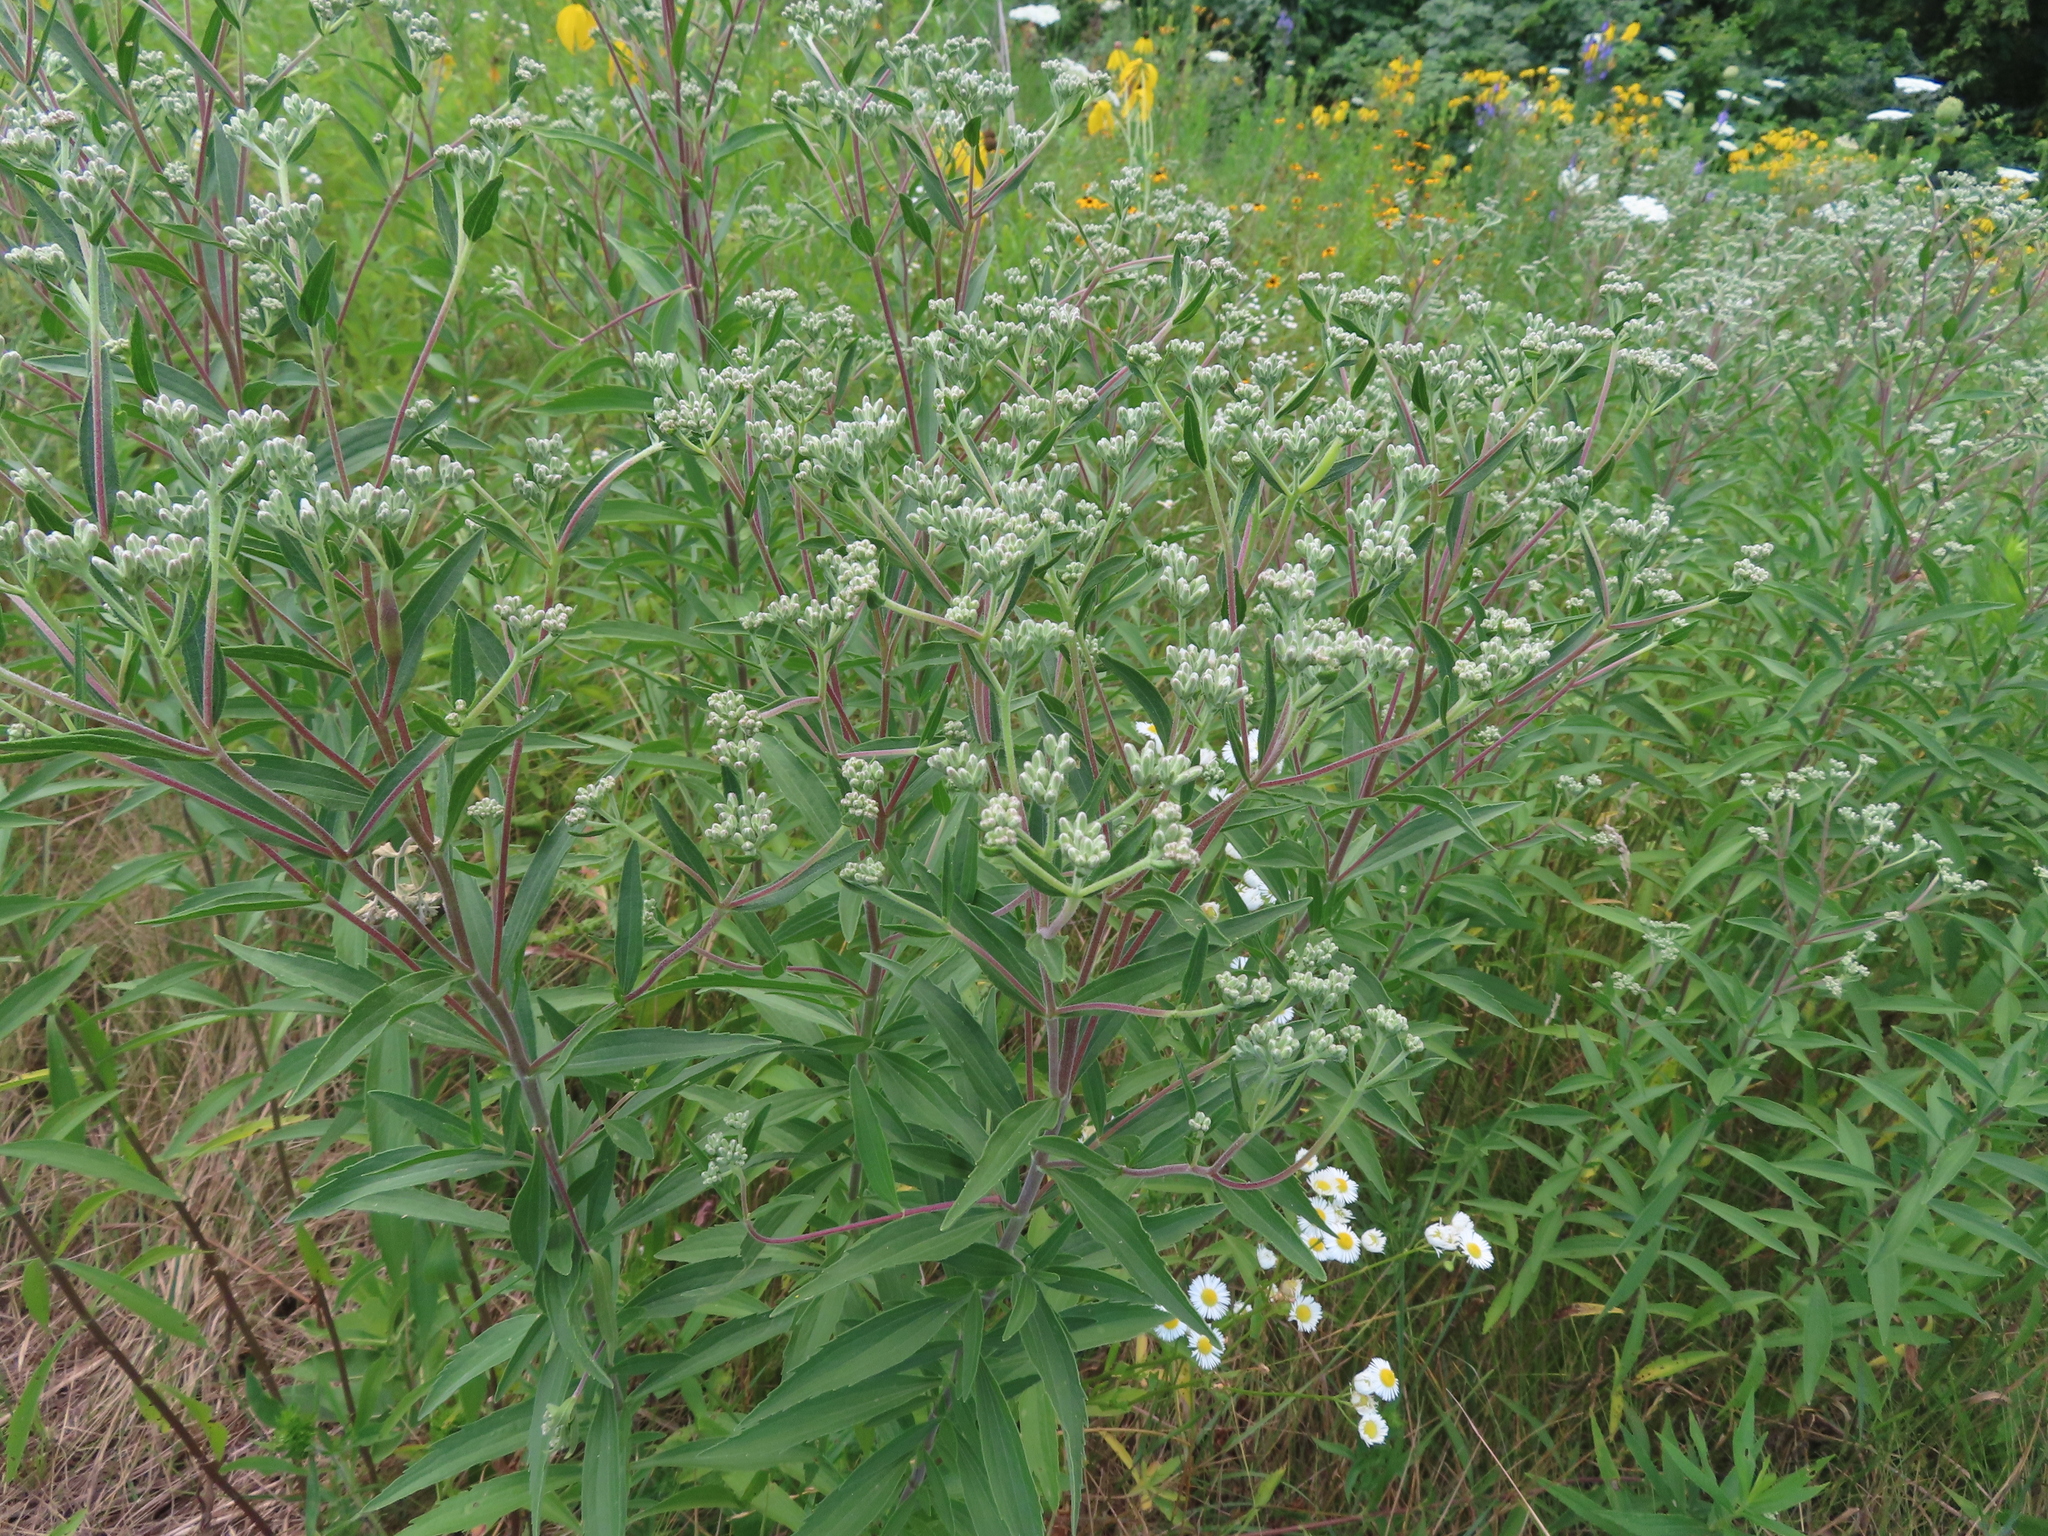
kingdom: Plantae
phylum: Tracheophyta
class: Magnoliopsida
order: Asterales
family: Asteraceae
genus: Eupatorium
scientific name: Eupatorium altissimum
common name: Tall thoroughwort
